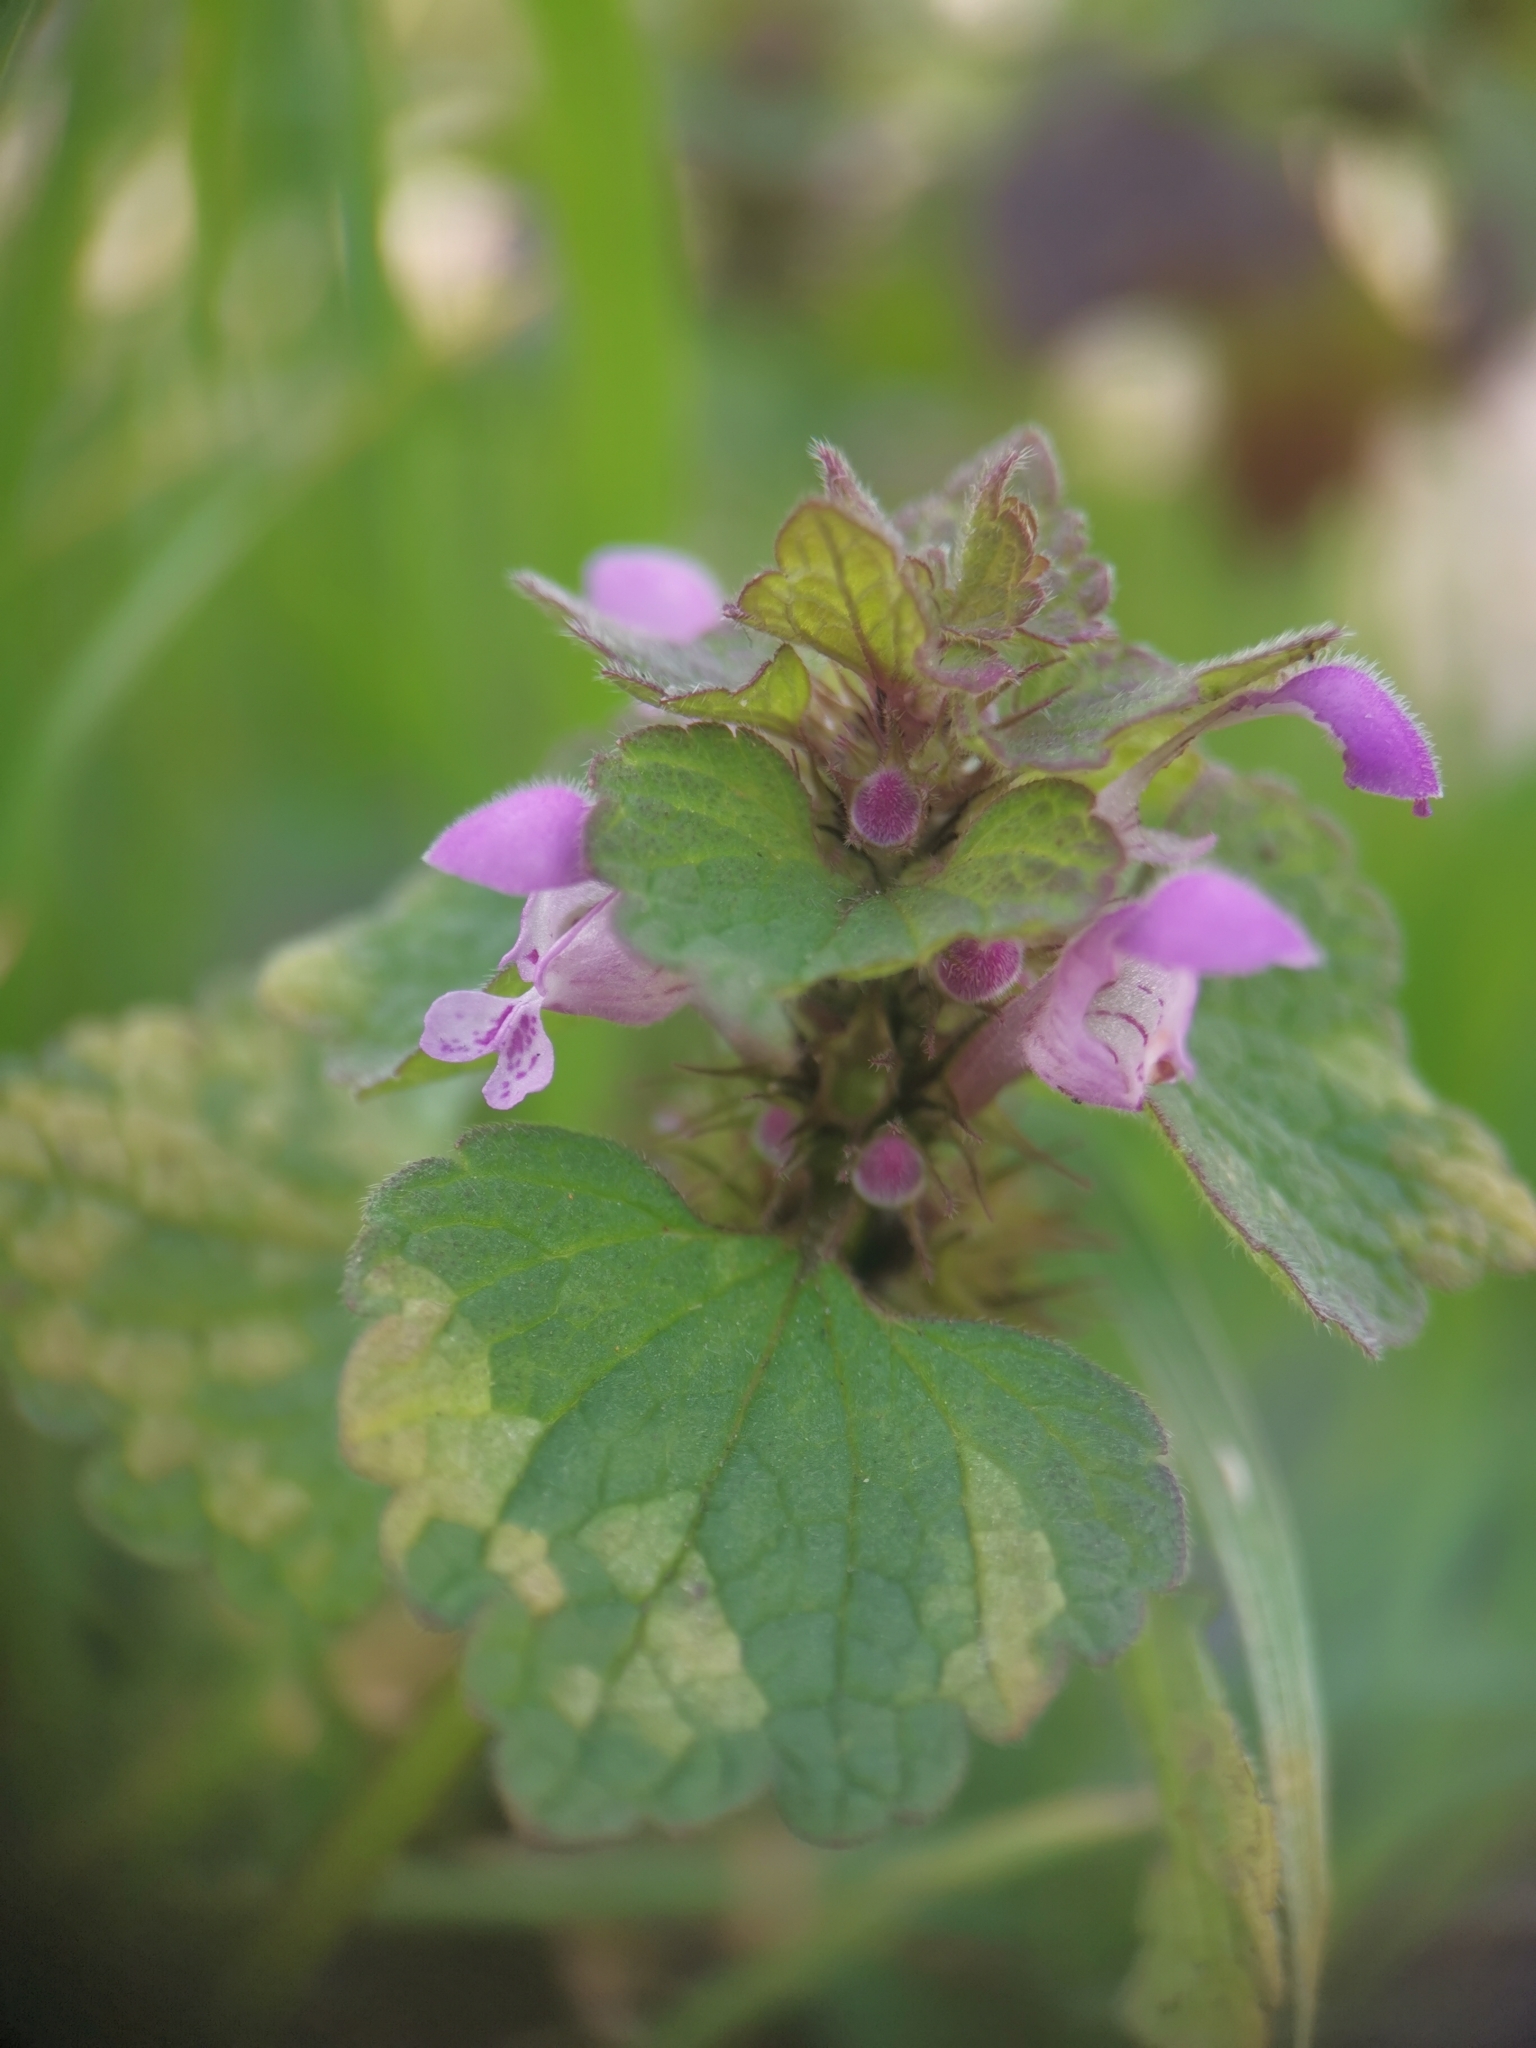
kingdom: Plantae
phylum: Tracheophyta
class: Magnoliopsida
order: Lamiales
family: Lamiaceae
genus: Lamium
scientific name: Lamium purpureum
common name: Red dead-nettle
